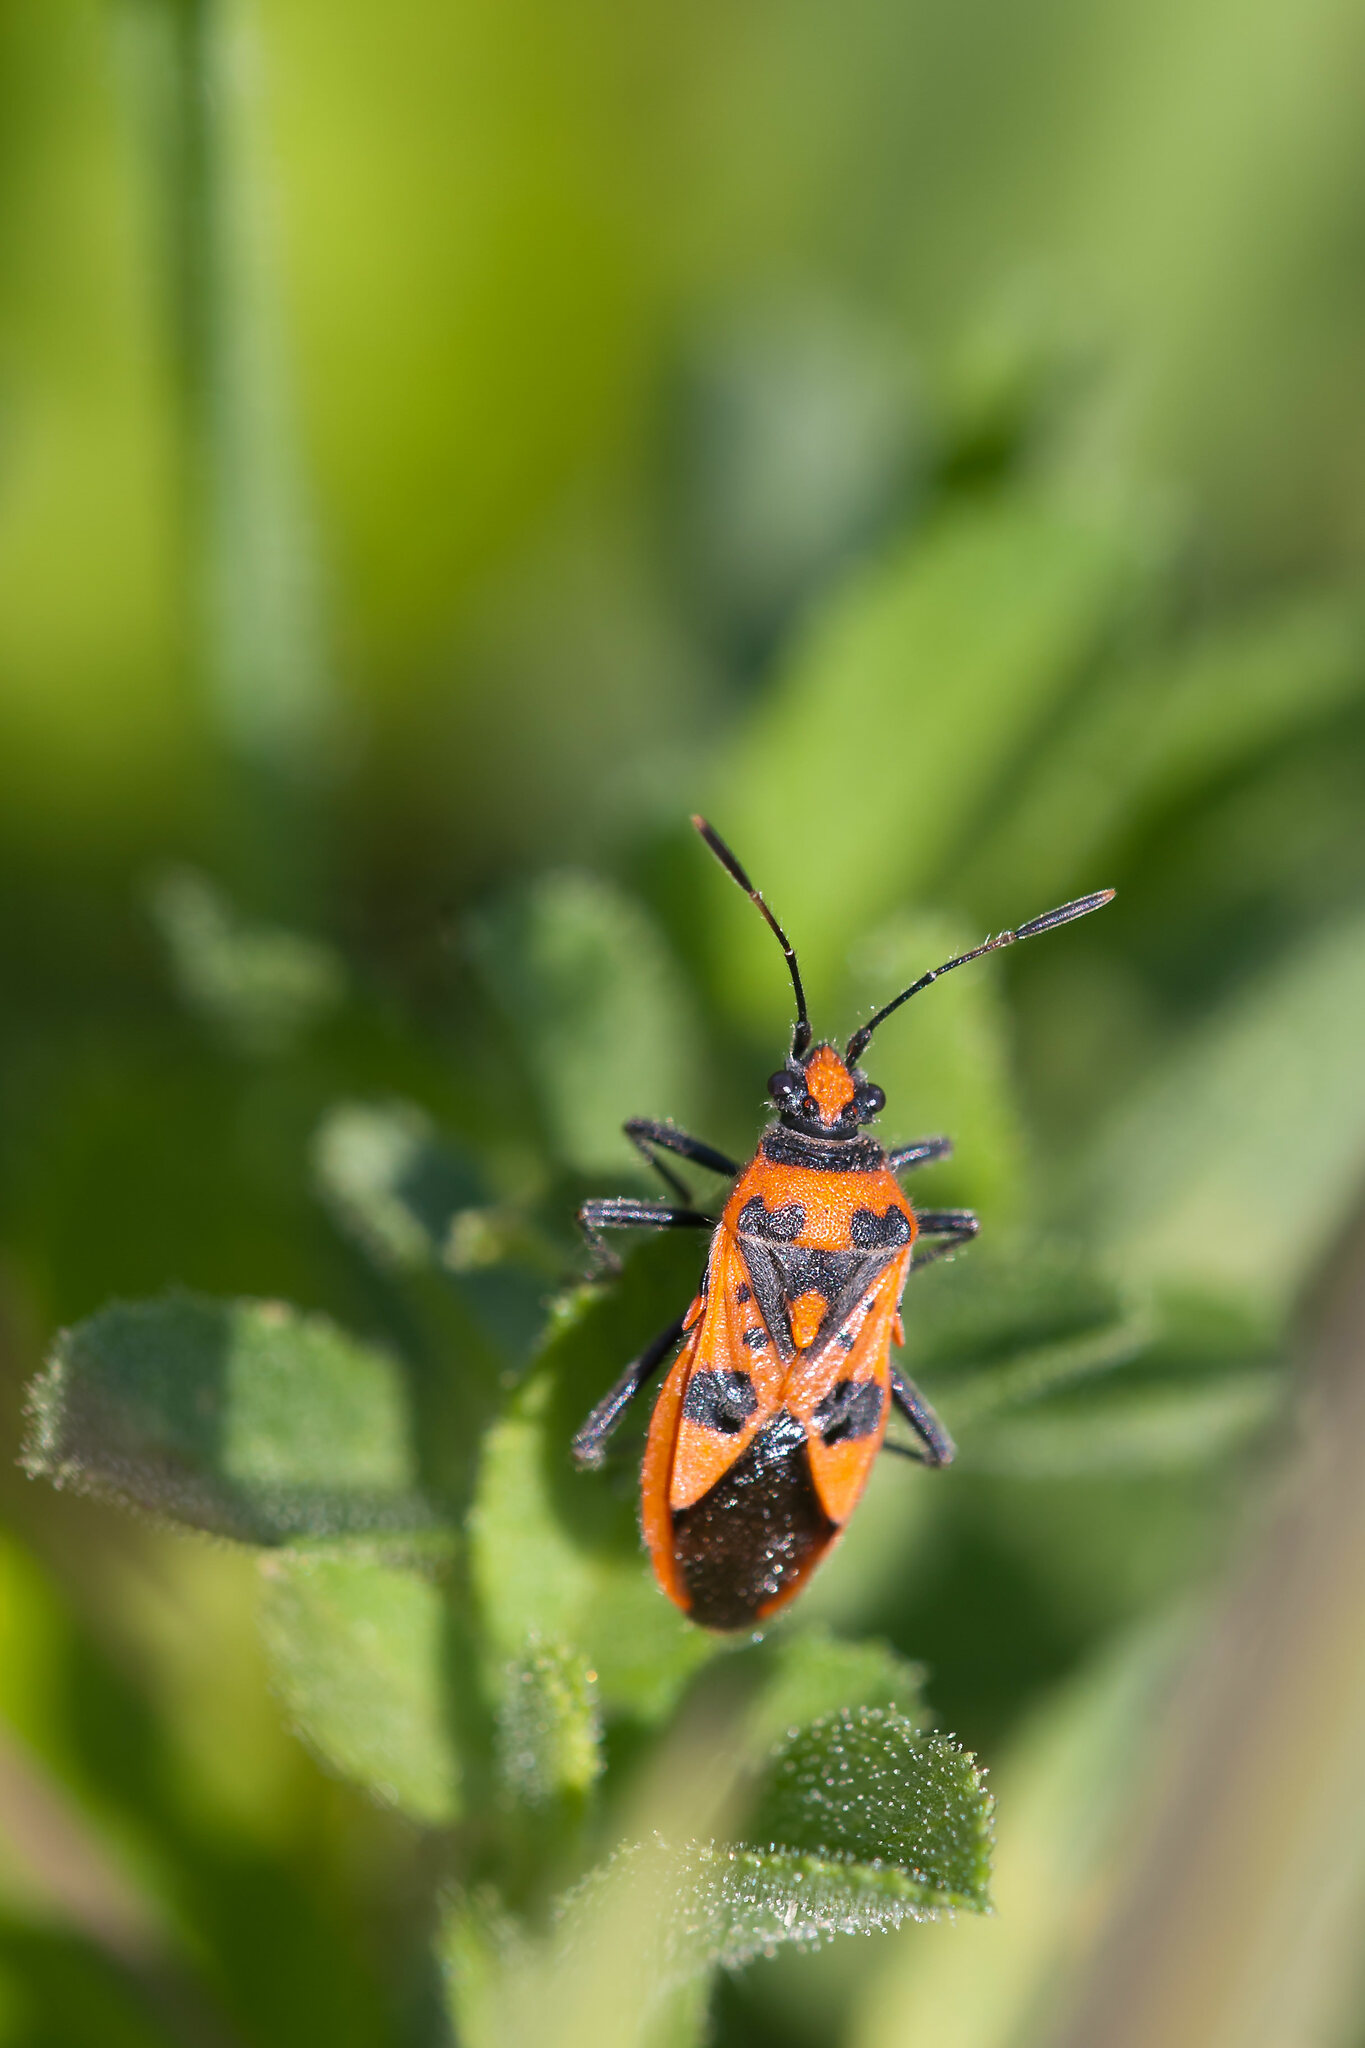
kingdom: Animalia
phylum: Arthropoda
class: Insecta
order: Hemiptera
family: Rhopalidae
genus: Corizus
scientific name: Corizus hyoscyami
